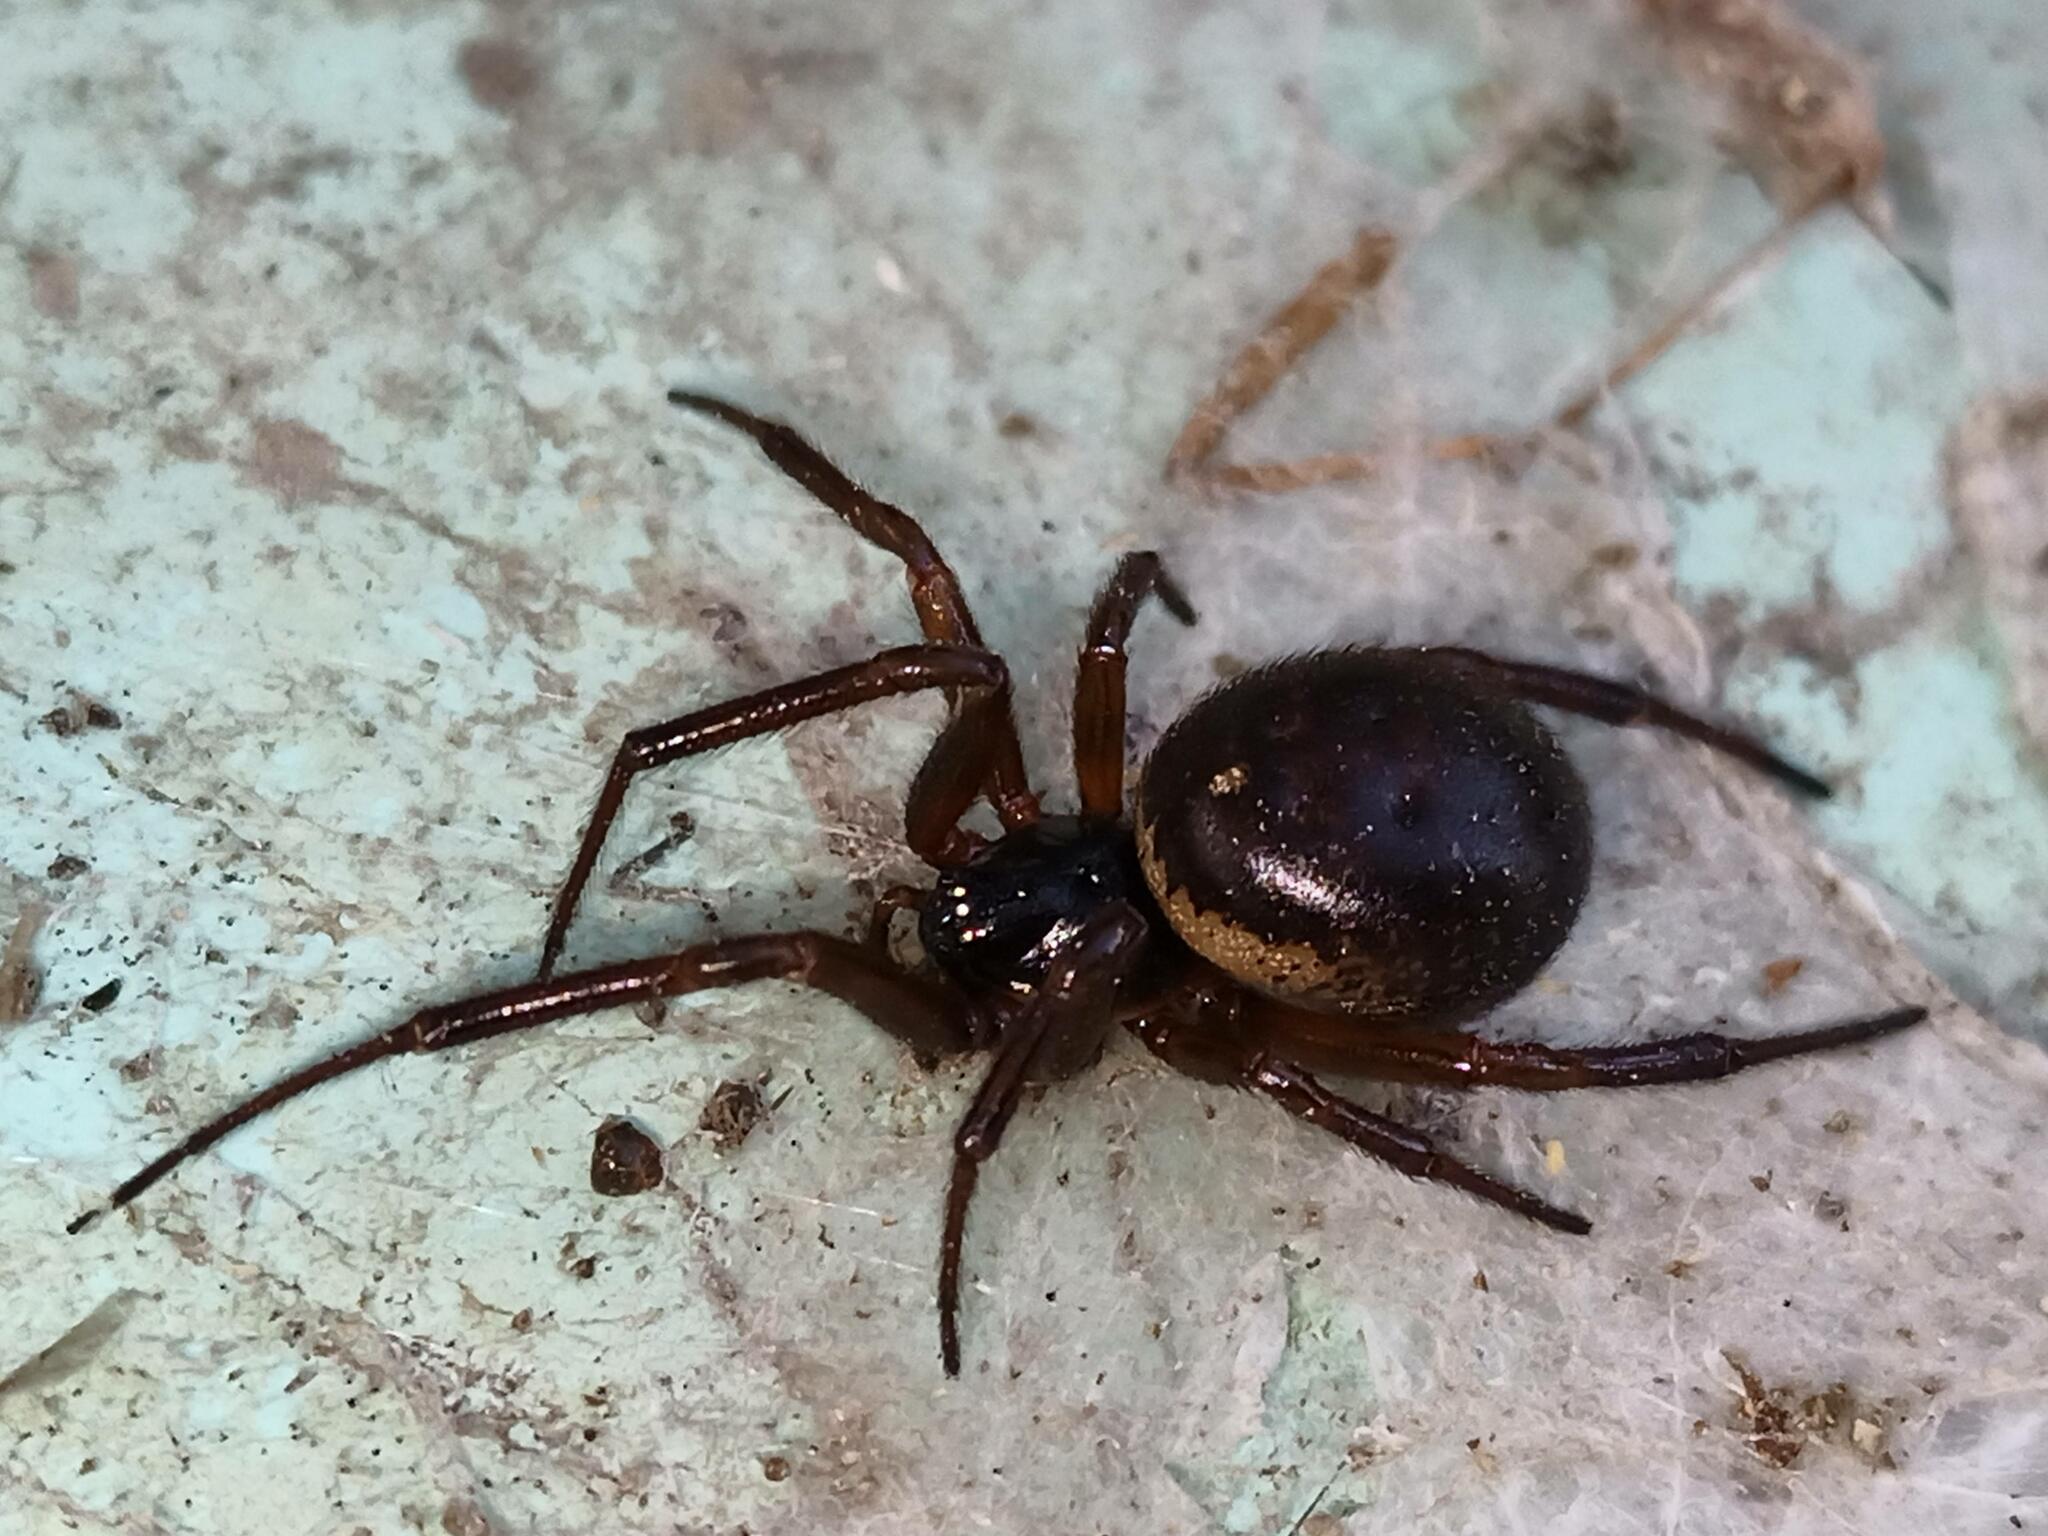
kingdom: Animalia
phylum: Arthropoda
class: Arachnida
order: Araneae
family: Theridiidae
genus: Steatoda
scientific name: Steatoda nobilis
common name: Cobweb weaver
